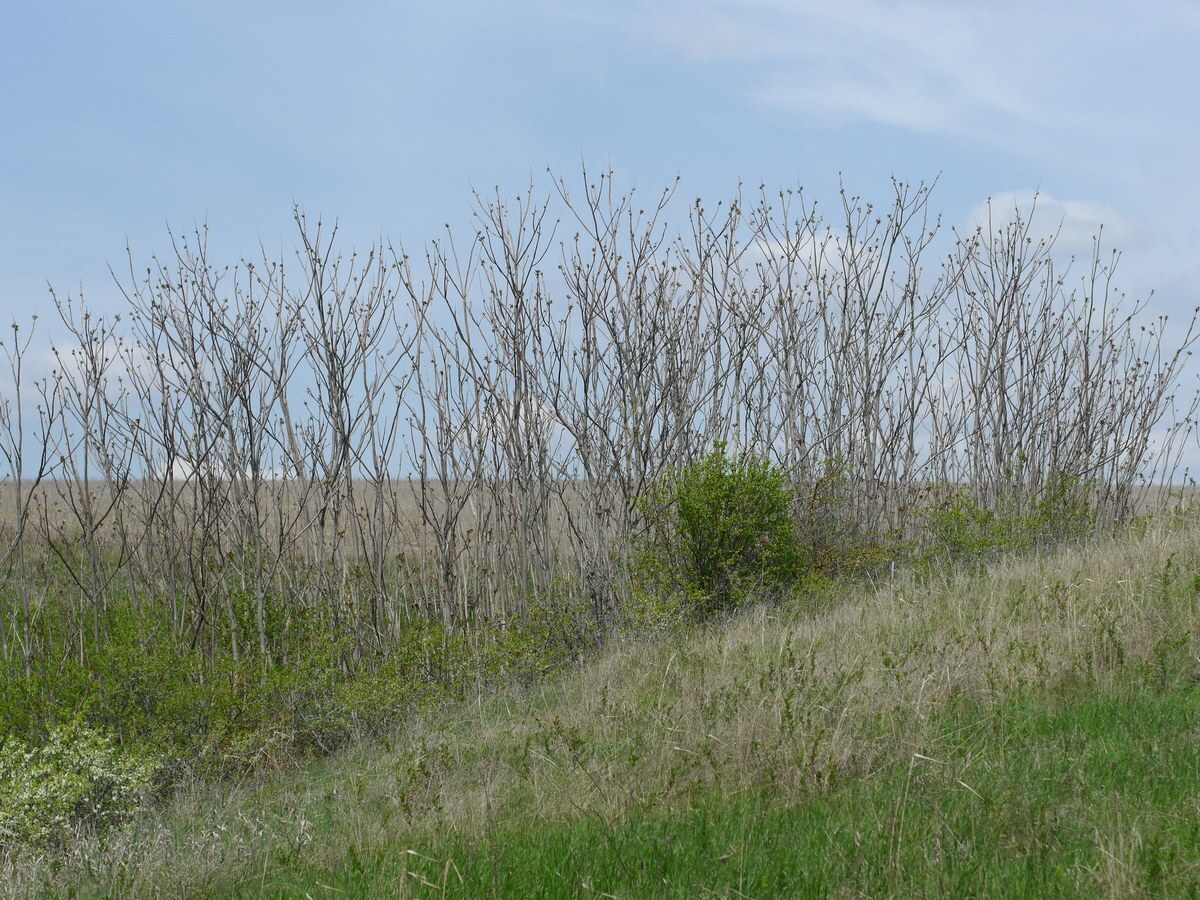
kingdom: Plantae
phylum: Tracheophyta
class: Magnoliopsida
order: Sapindales
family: Simaroubaceae
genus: Ailanthus
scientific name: Ailanthus altissima
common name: Tree-of-heaven
